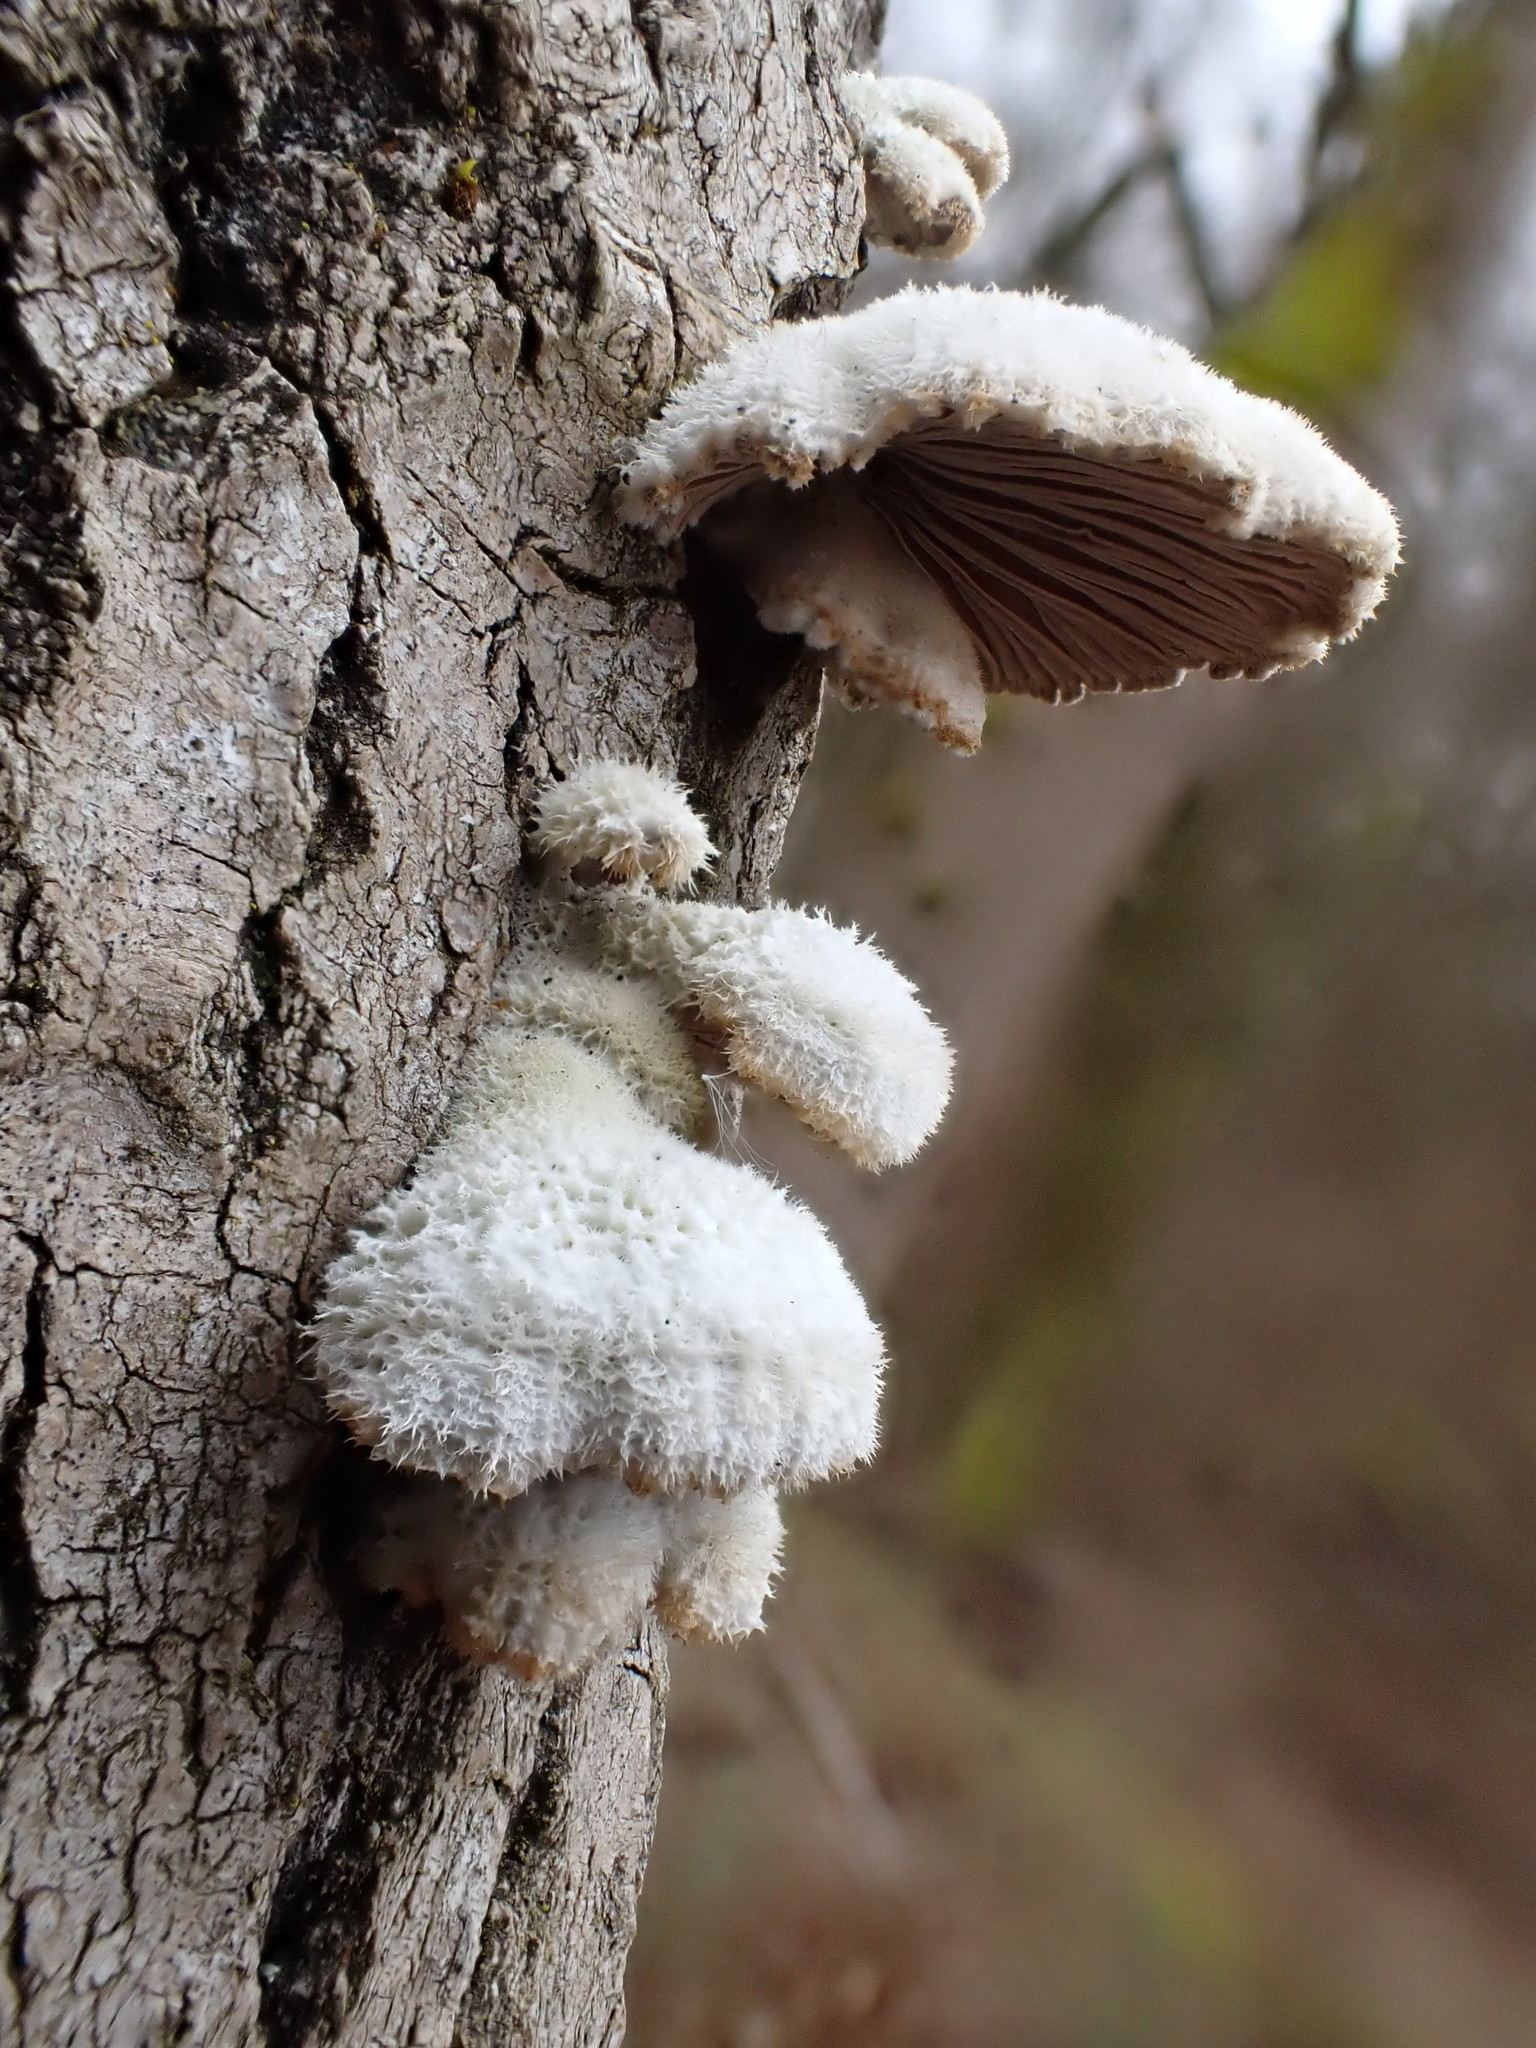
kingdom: Fungi
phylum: Basidiomycota
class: Agaricomycetes
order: Agaricales
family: Schizophyllaceae
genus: Schizophyllum
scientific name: Schizophyllum commune
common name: Common porecrust
